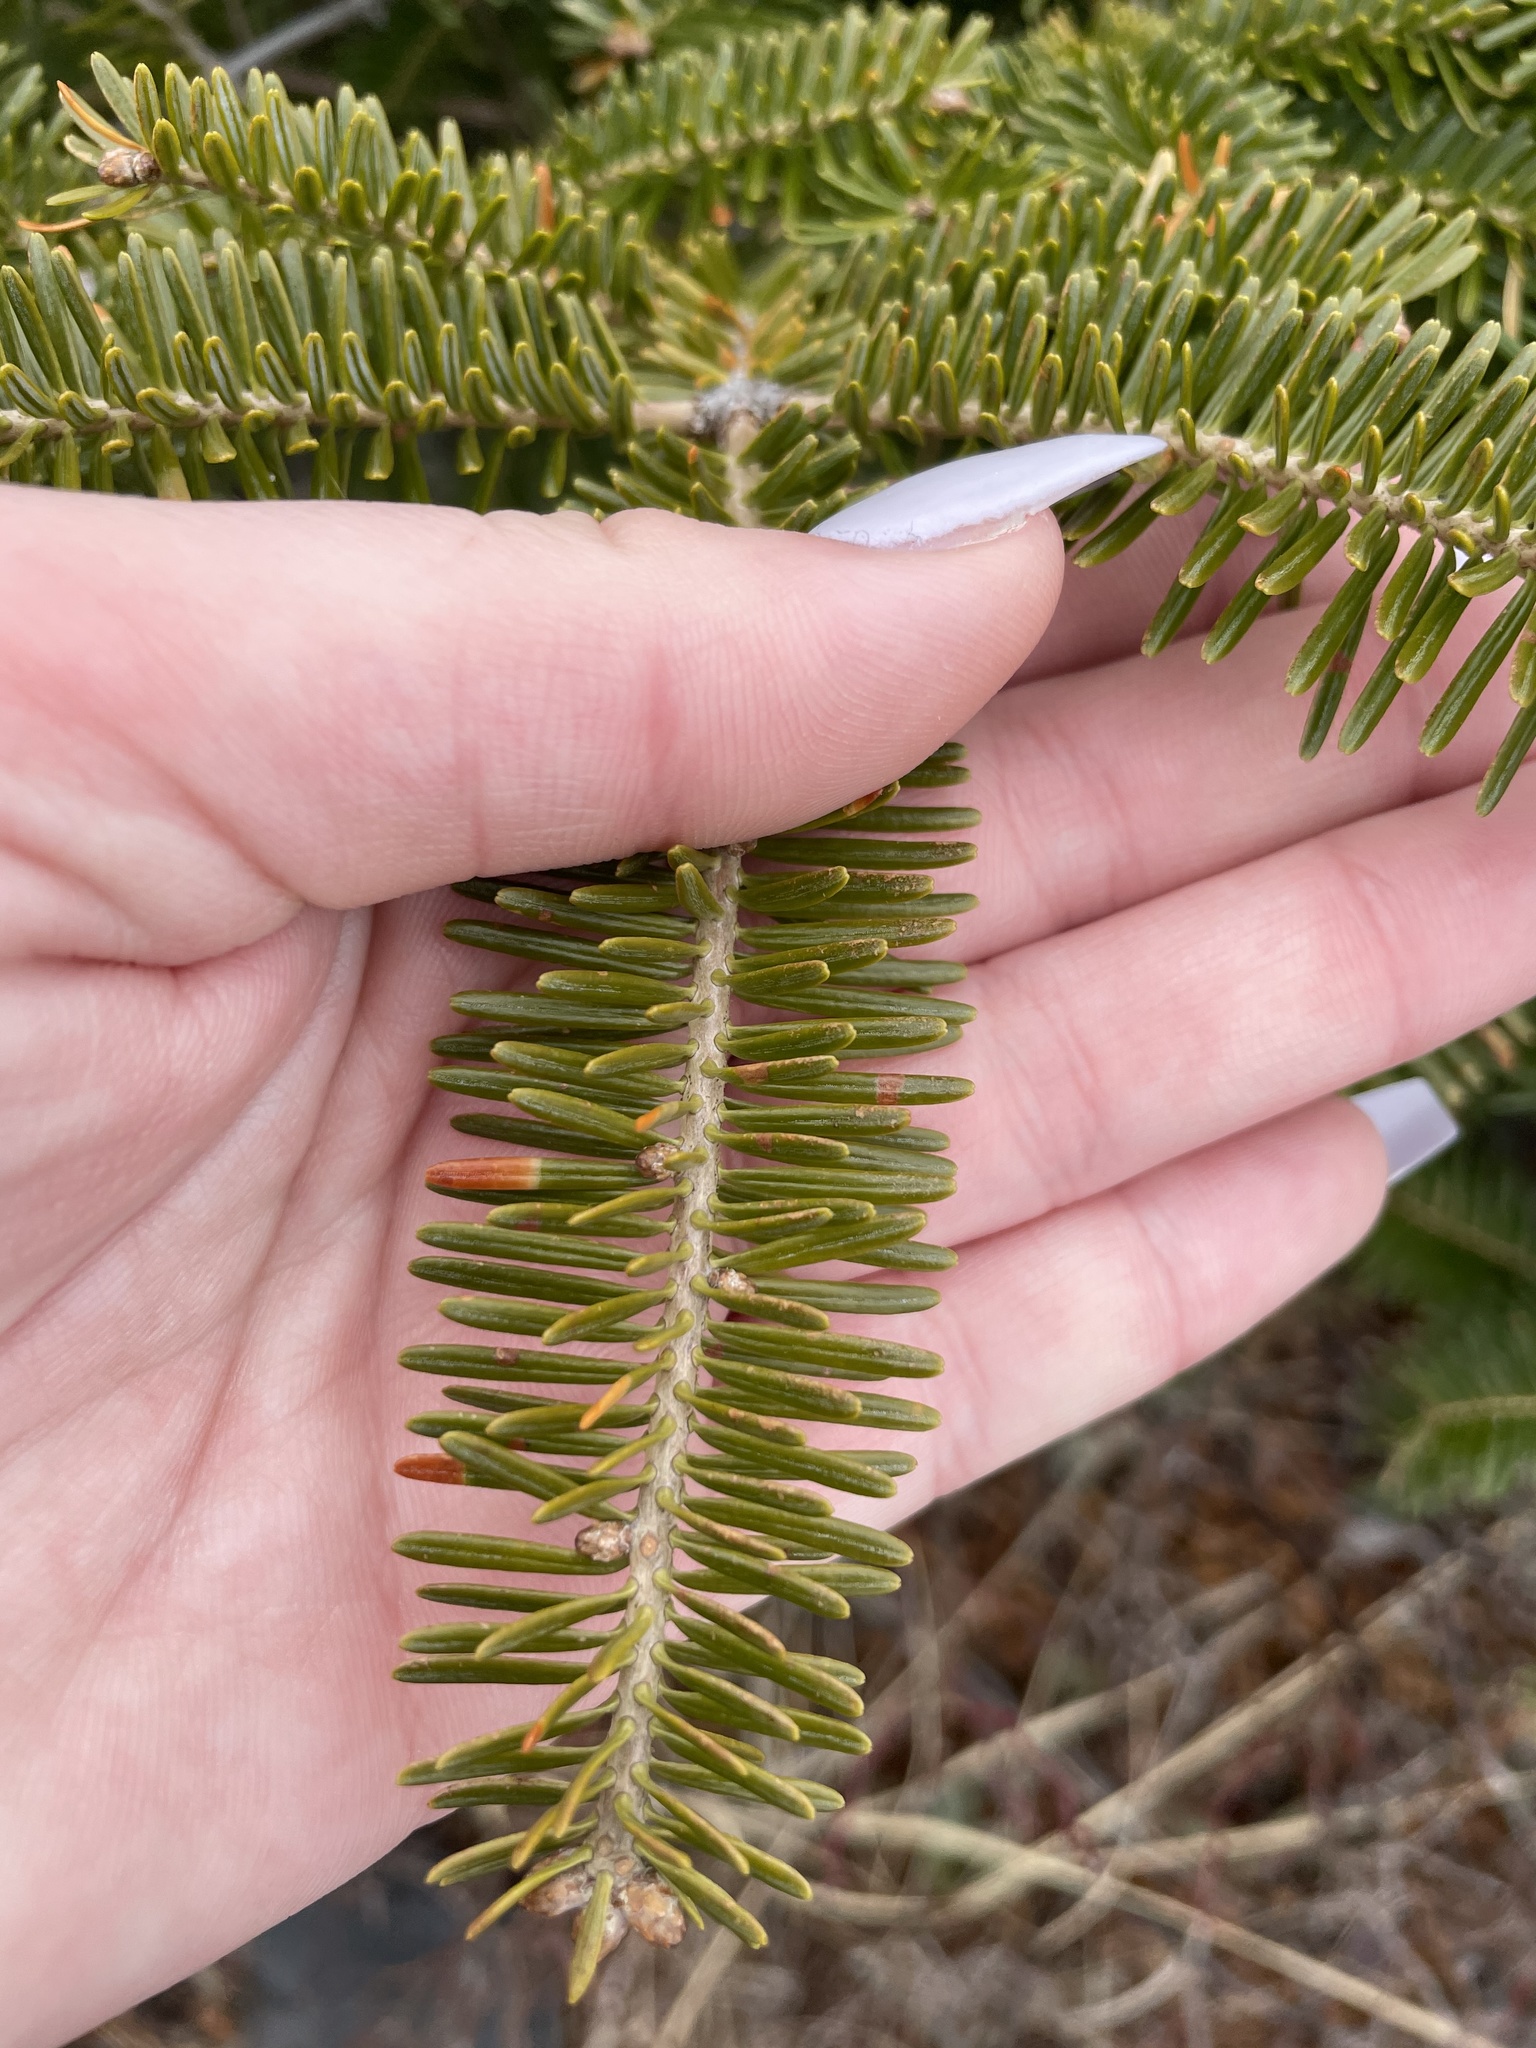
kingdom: Plantae
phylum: Tracheophyta
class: Pinopsida
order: Pinales
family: Pinaceae
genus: Abies
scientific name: Abies balsamea
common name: Balsam fir
